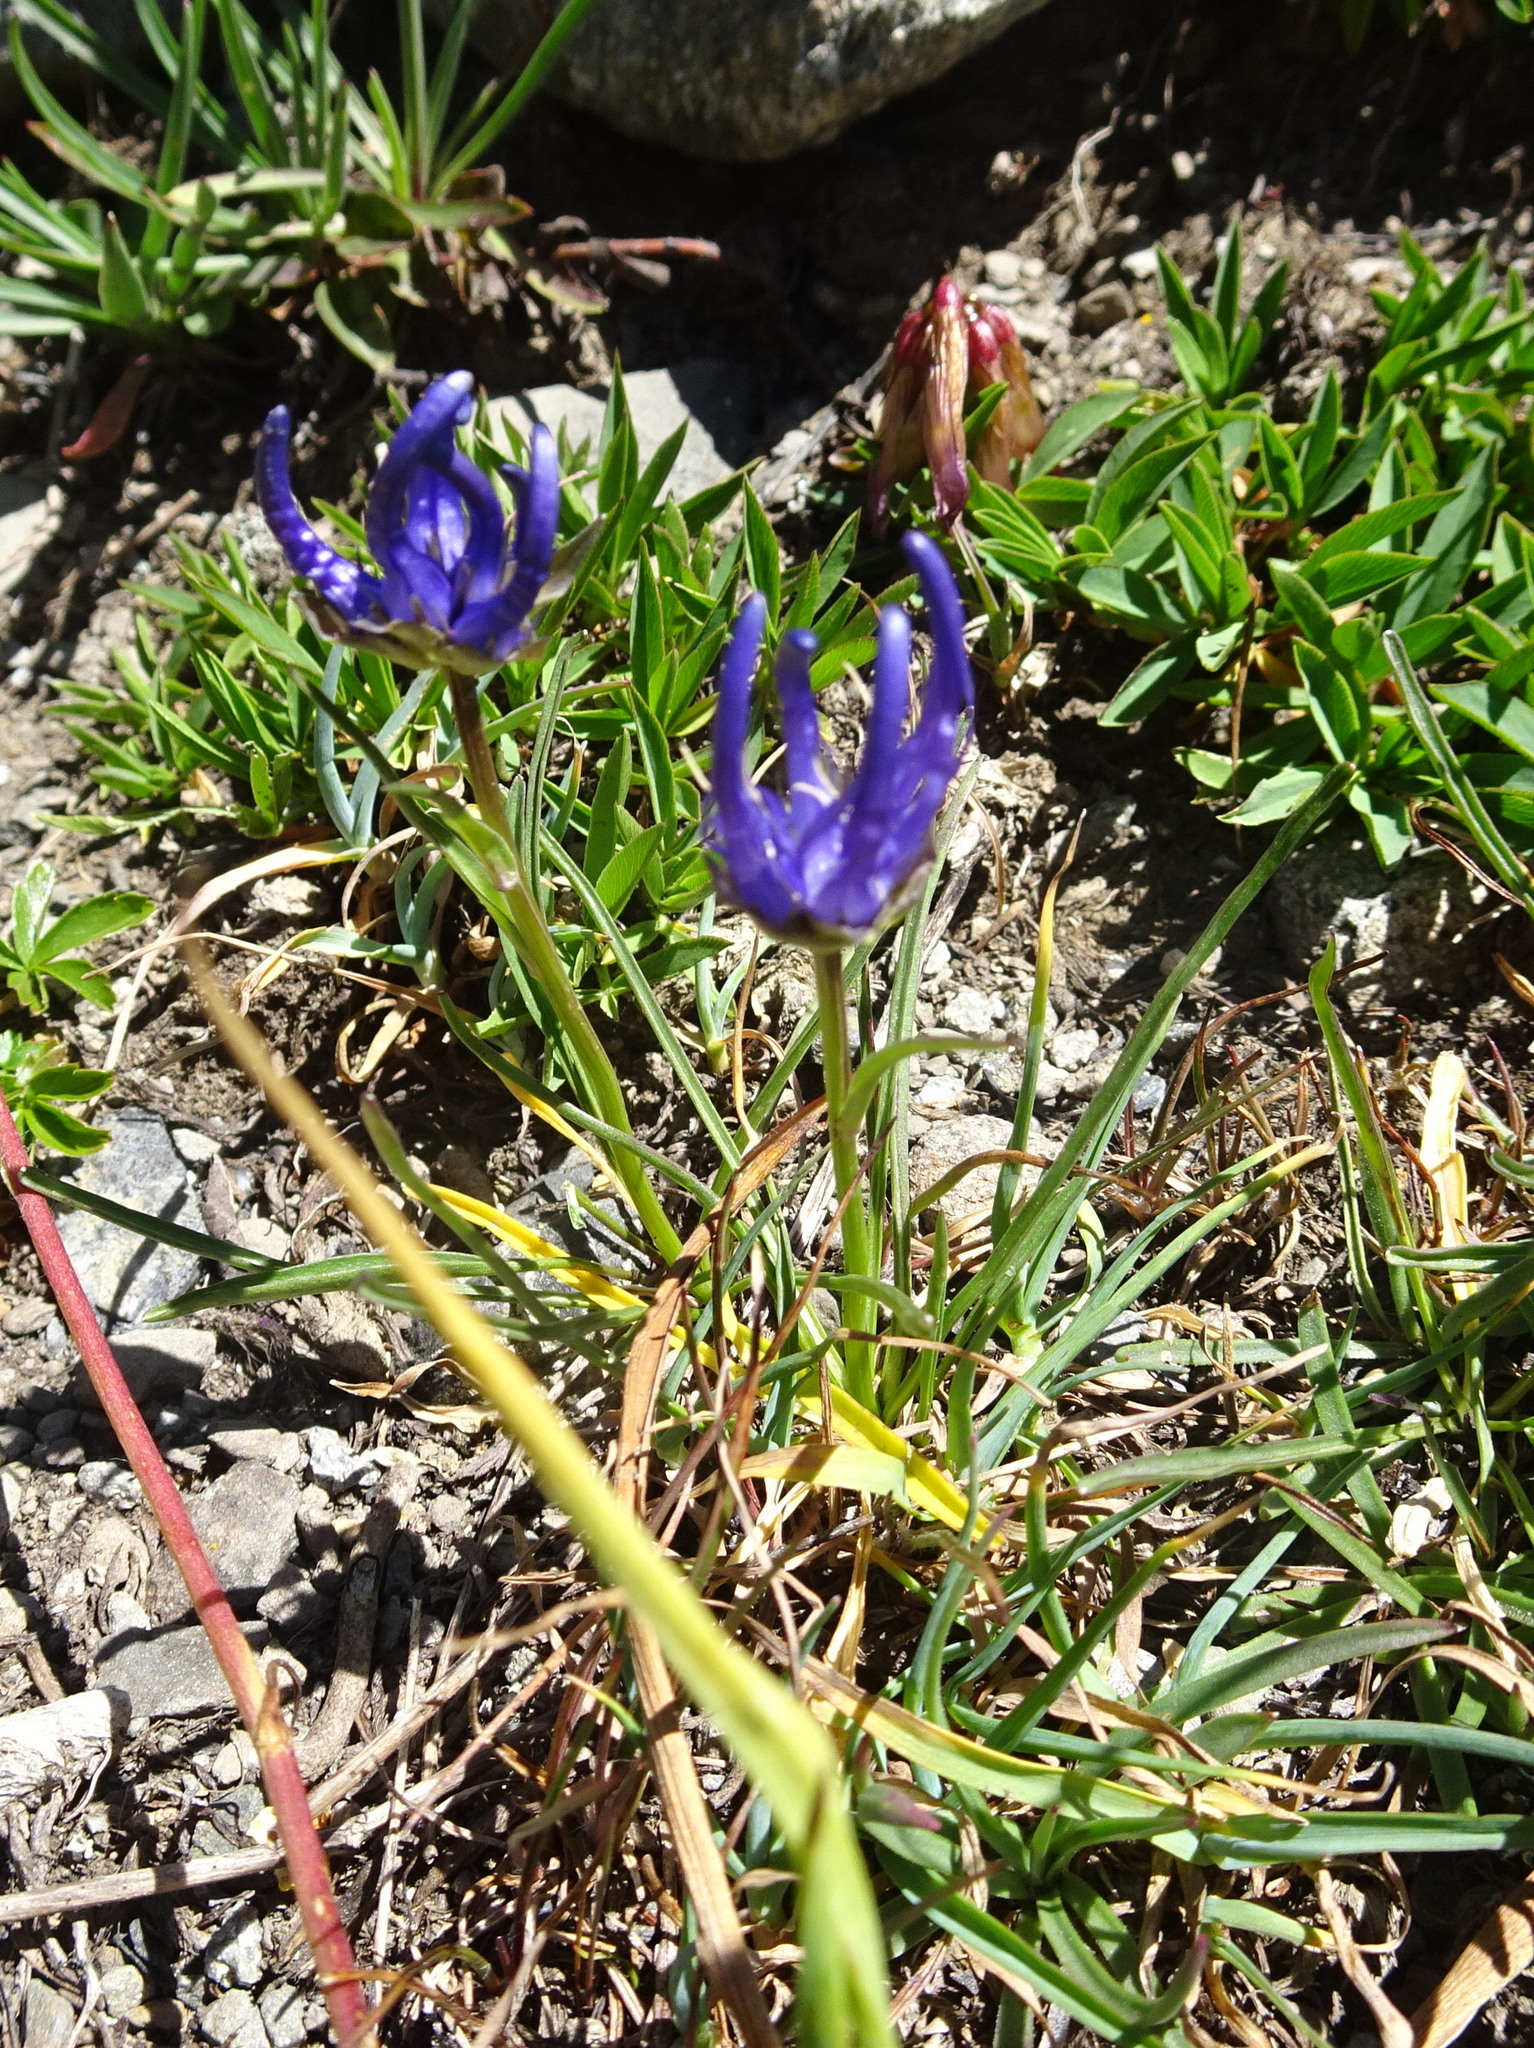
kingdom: Plantae
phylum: Tracheophyta
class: Magnoliopsida
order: Asterales
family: Campanulaceae
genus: Phyteuma
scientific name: Phyteuma hemisphaericum
